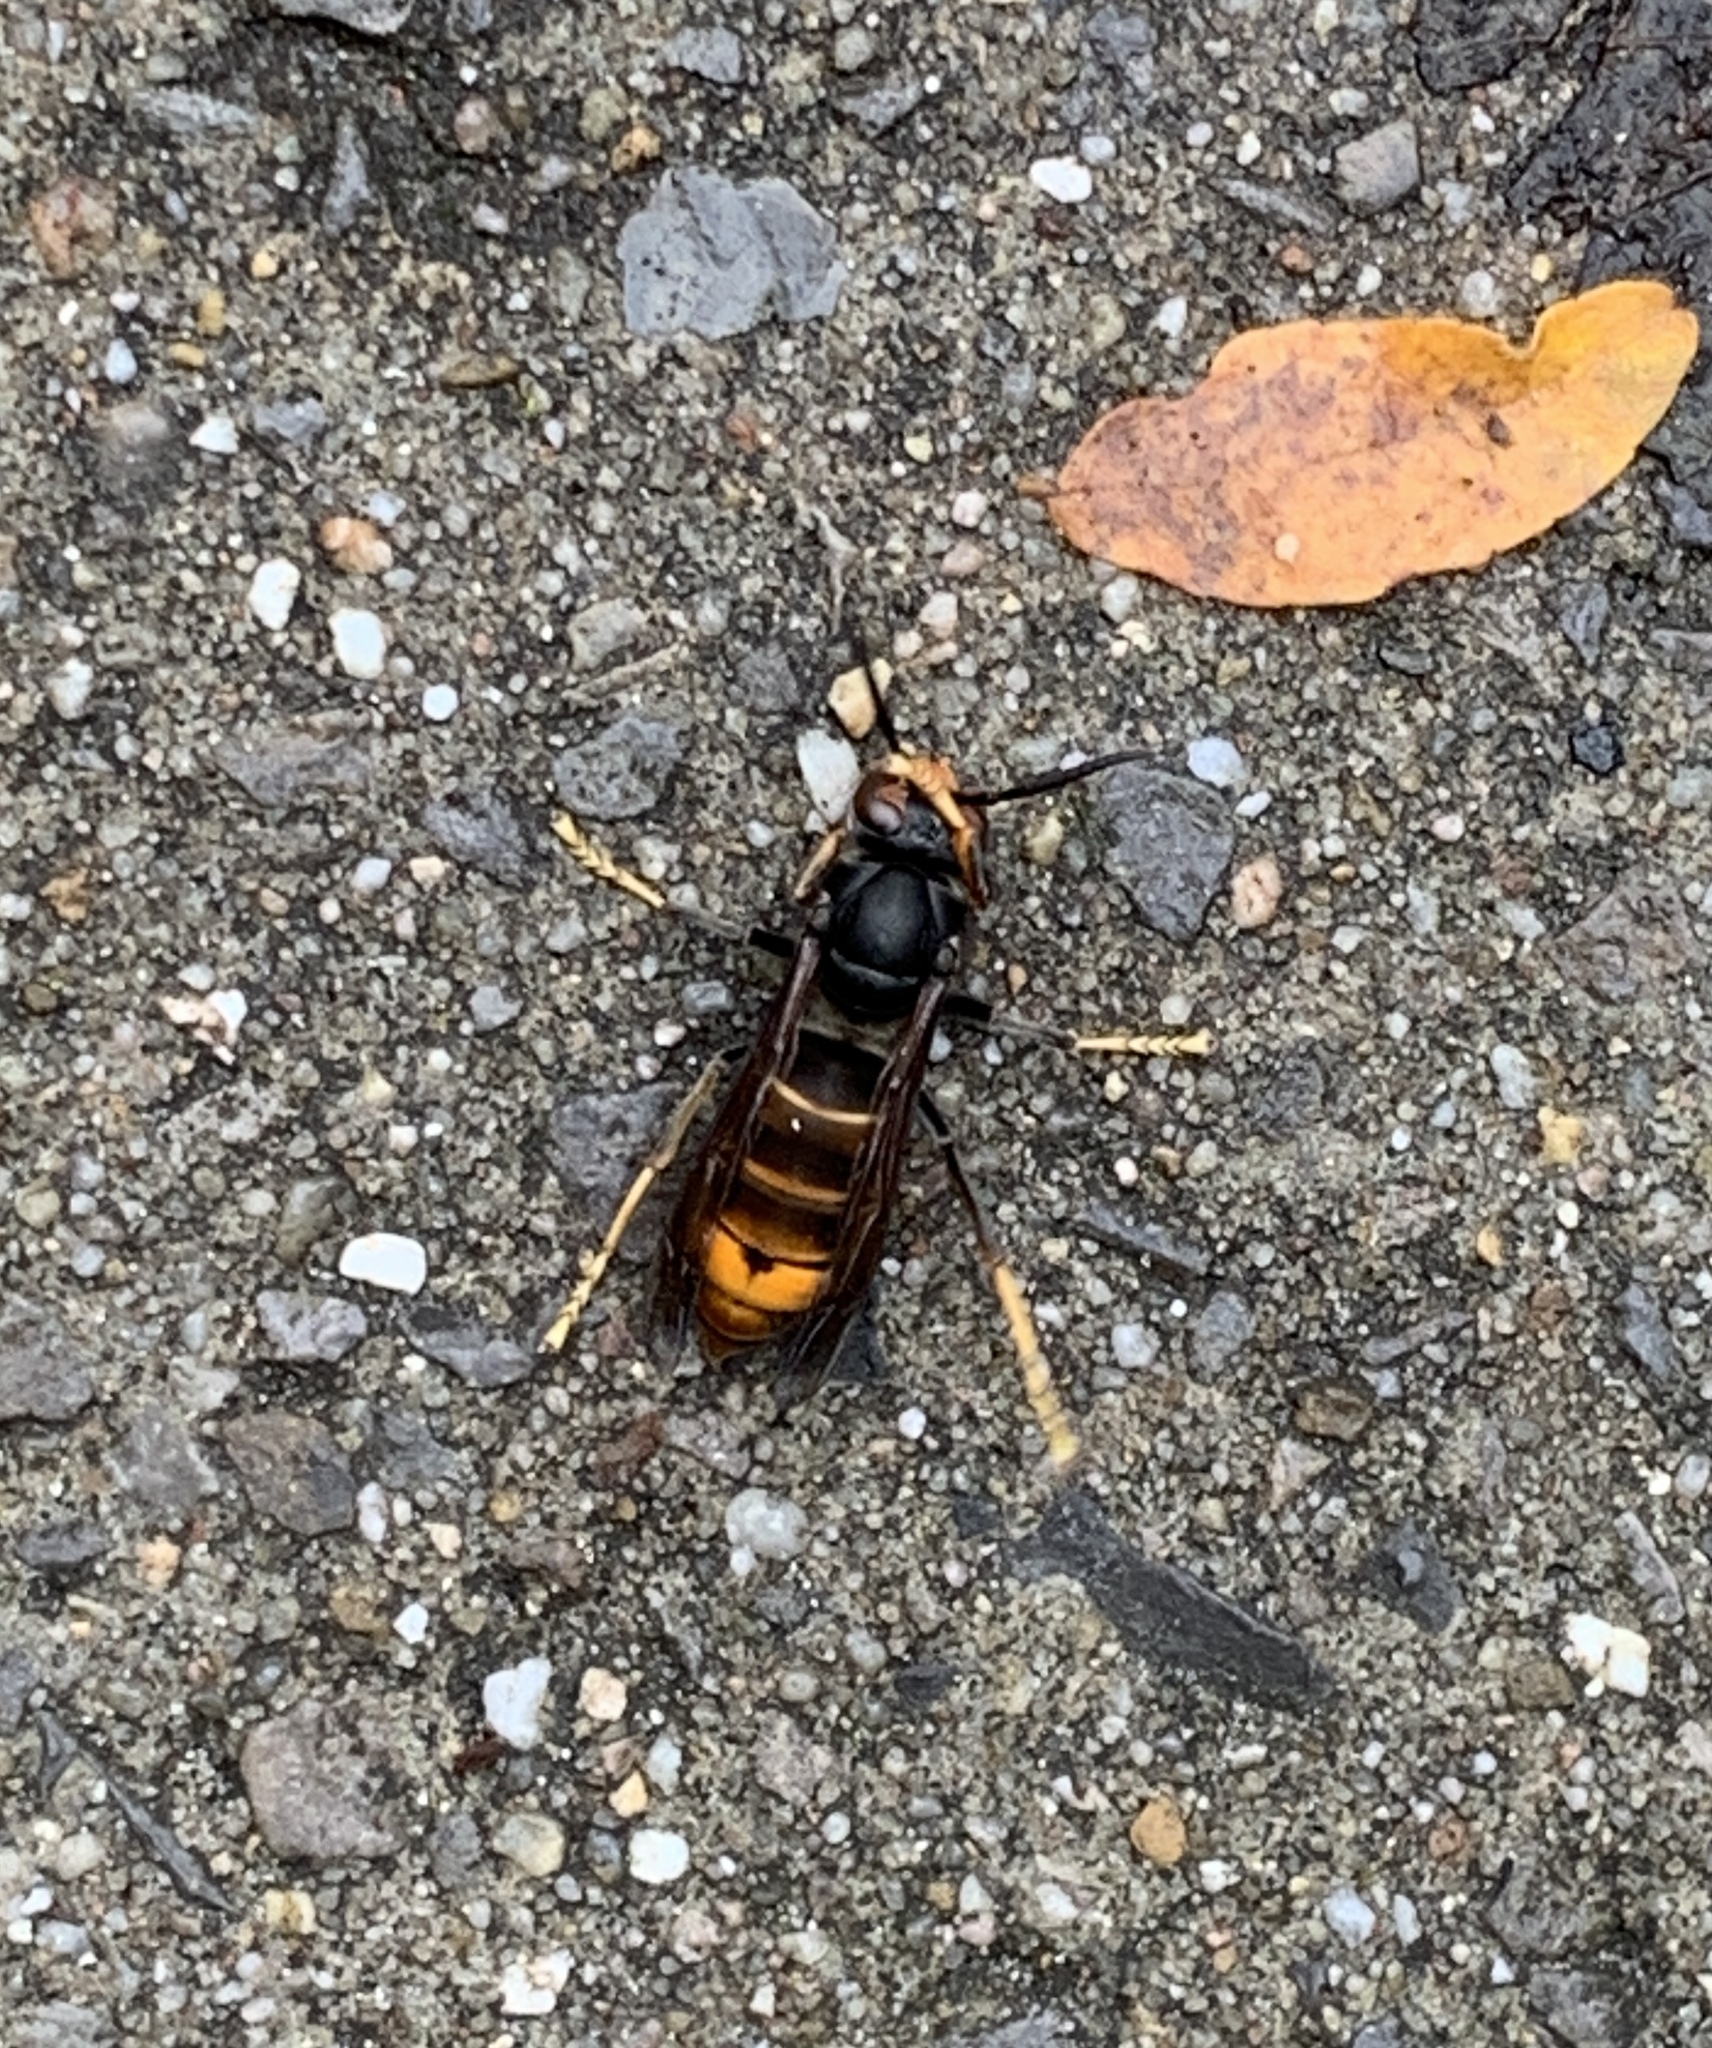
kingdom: Animalia
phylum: Arthropoda
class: Insecta
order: Hymenoptera
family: Vespidae
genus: Vespa
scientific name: Vespa velutina
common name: Asian hornet
